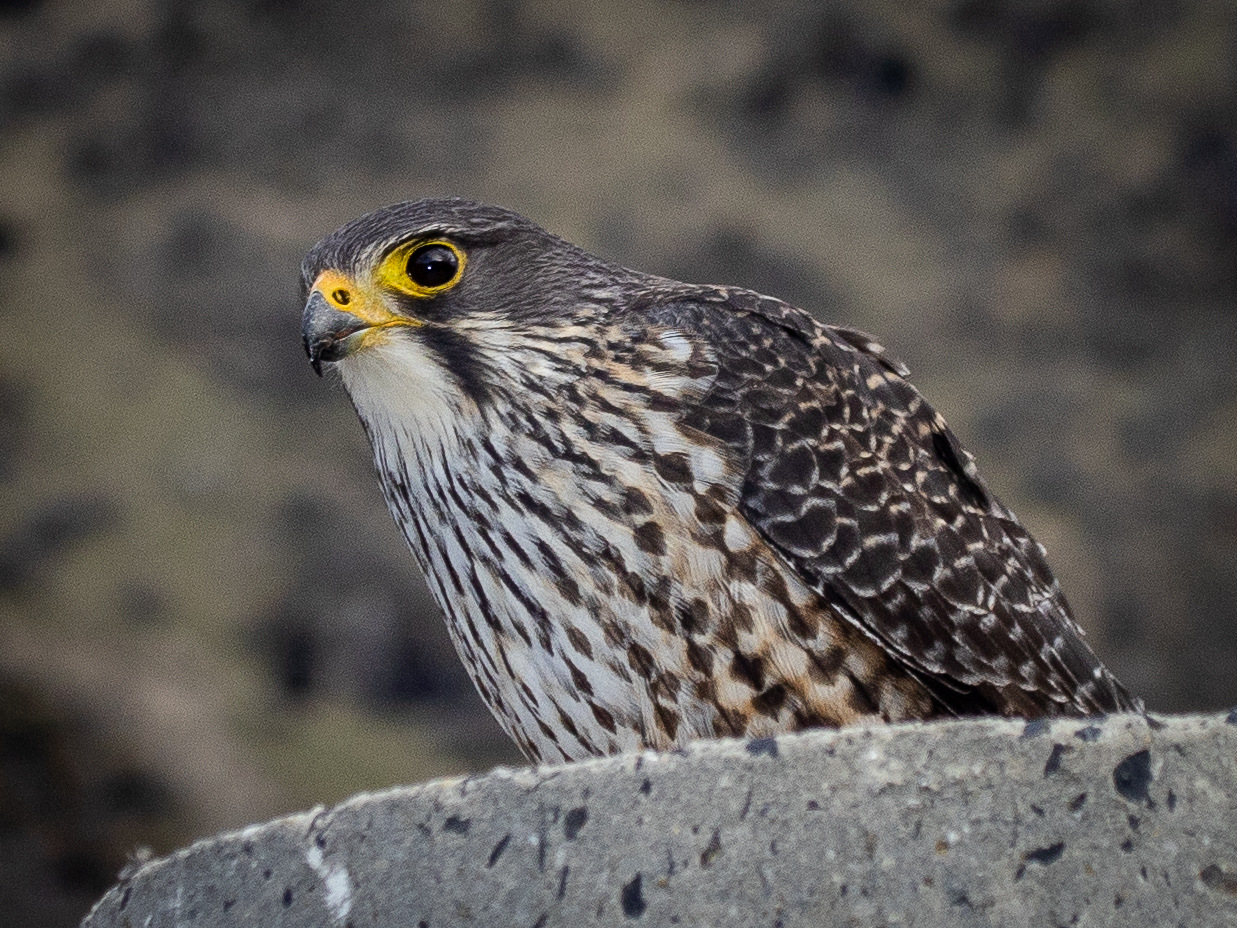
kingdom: Animalia
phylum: Chordata
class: Aves
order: Falconiformes
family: Falconidae
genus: Falco
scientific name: Falco novaeseelandiae
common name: New zealand falcon
